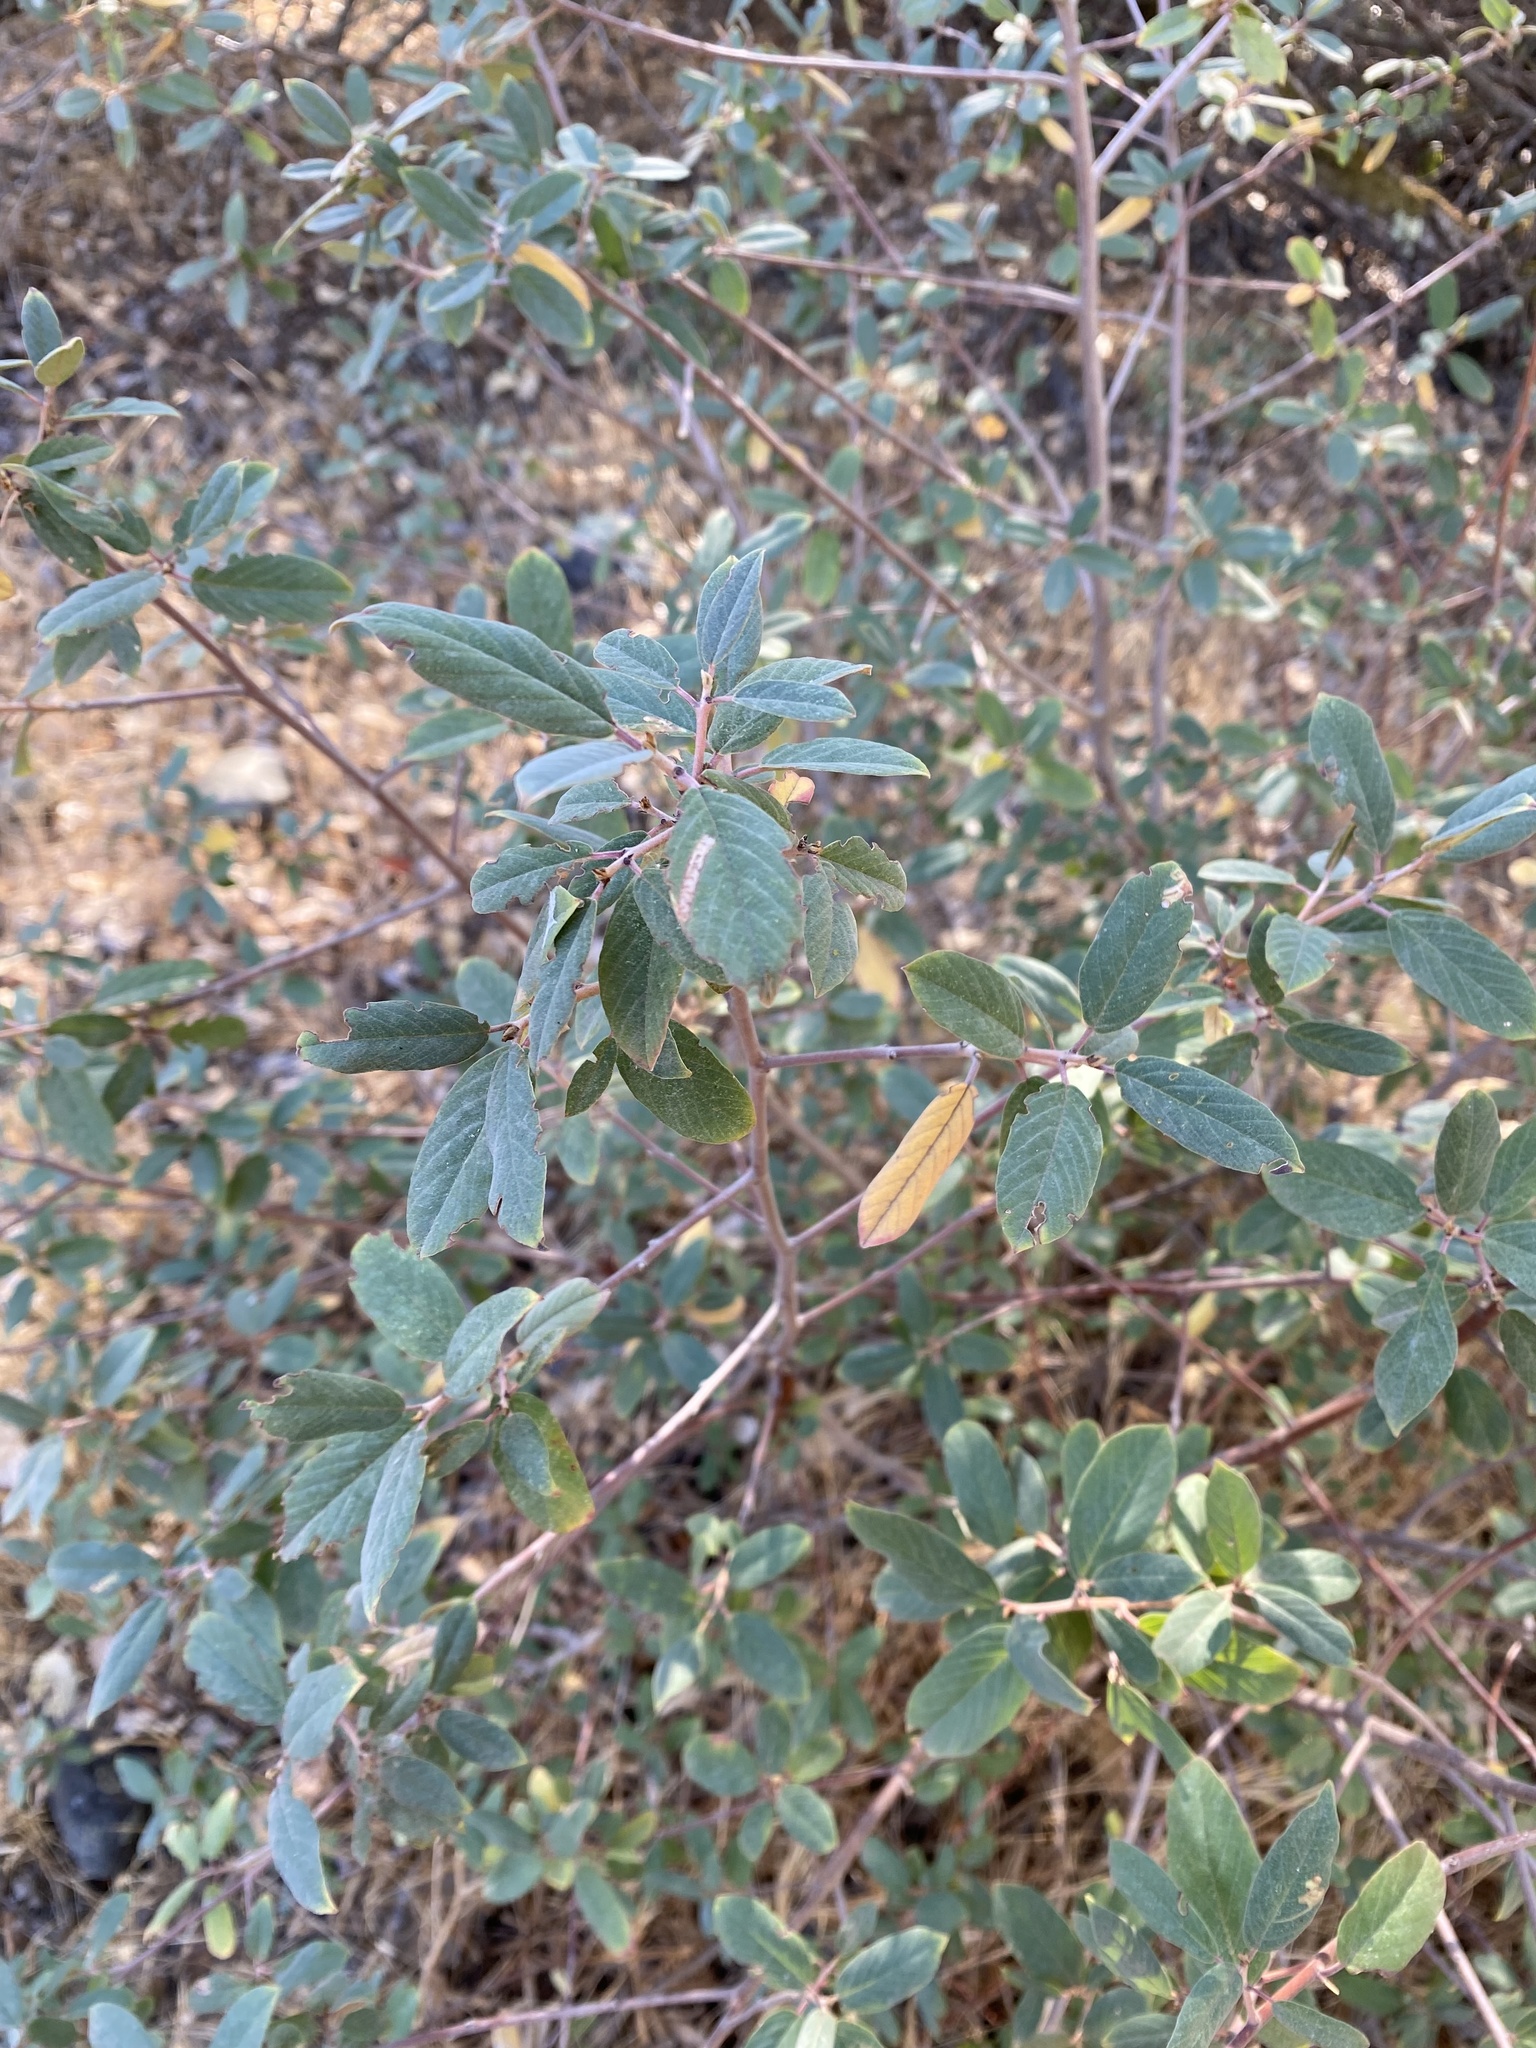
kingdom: Plantae
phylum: Tracheophyta
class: Magnoliopsida
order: Rosales
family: Rhamnaceae
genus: Frangula
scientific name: Frangula californica
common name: California buckthorn
